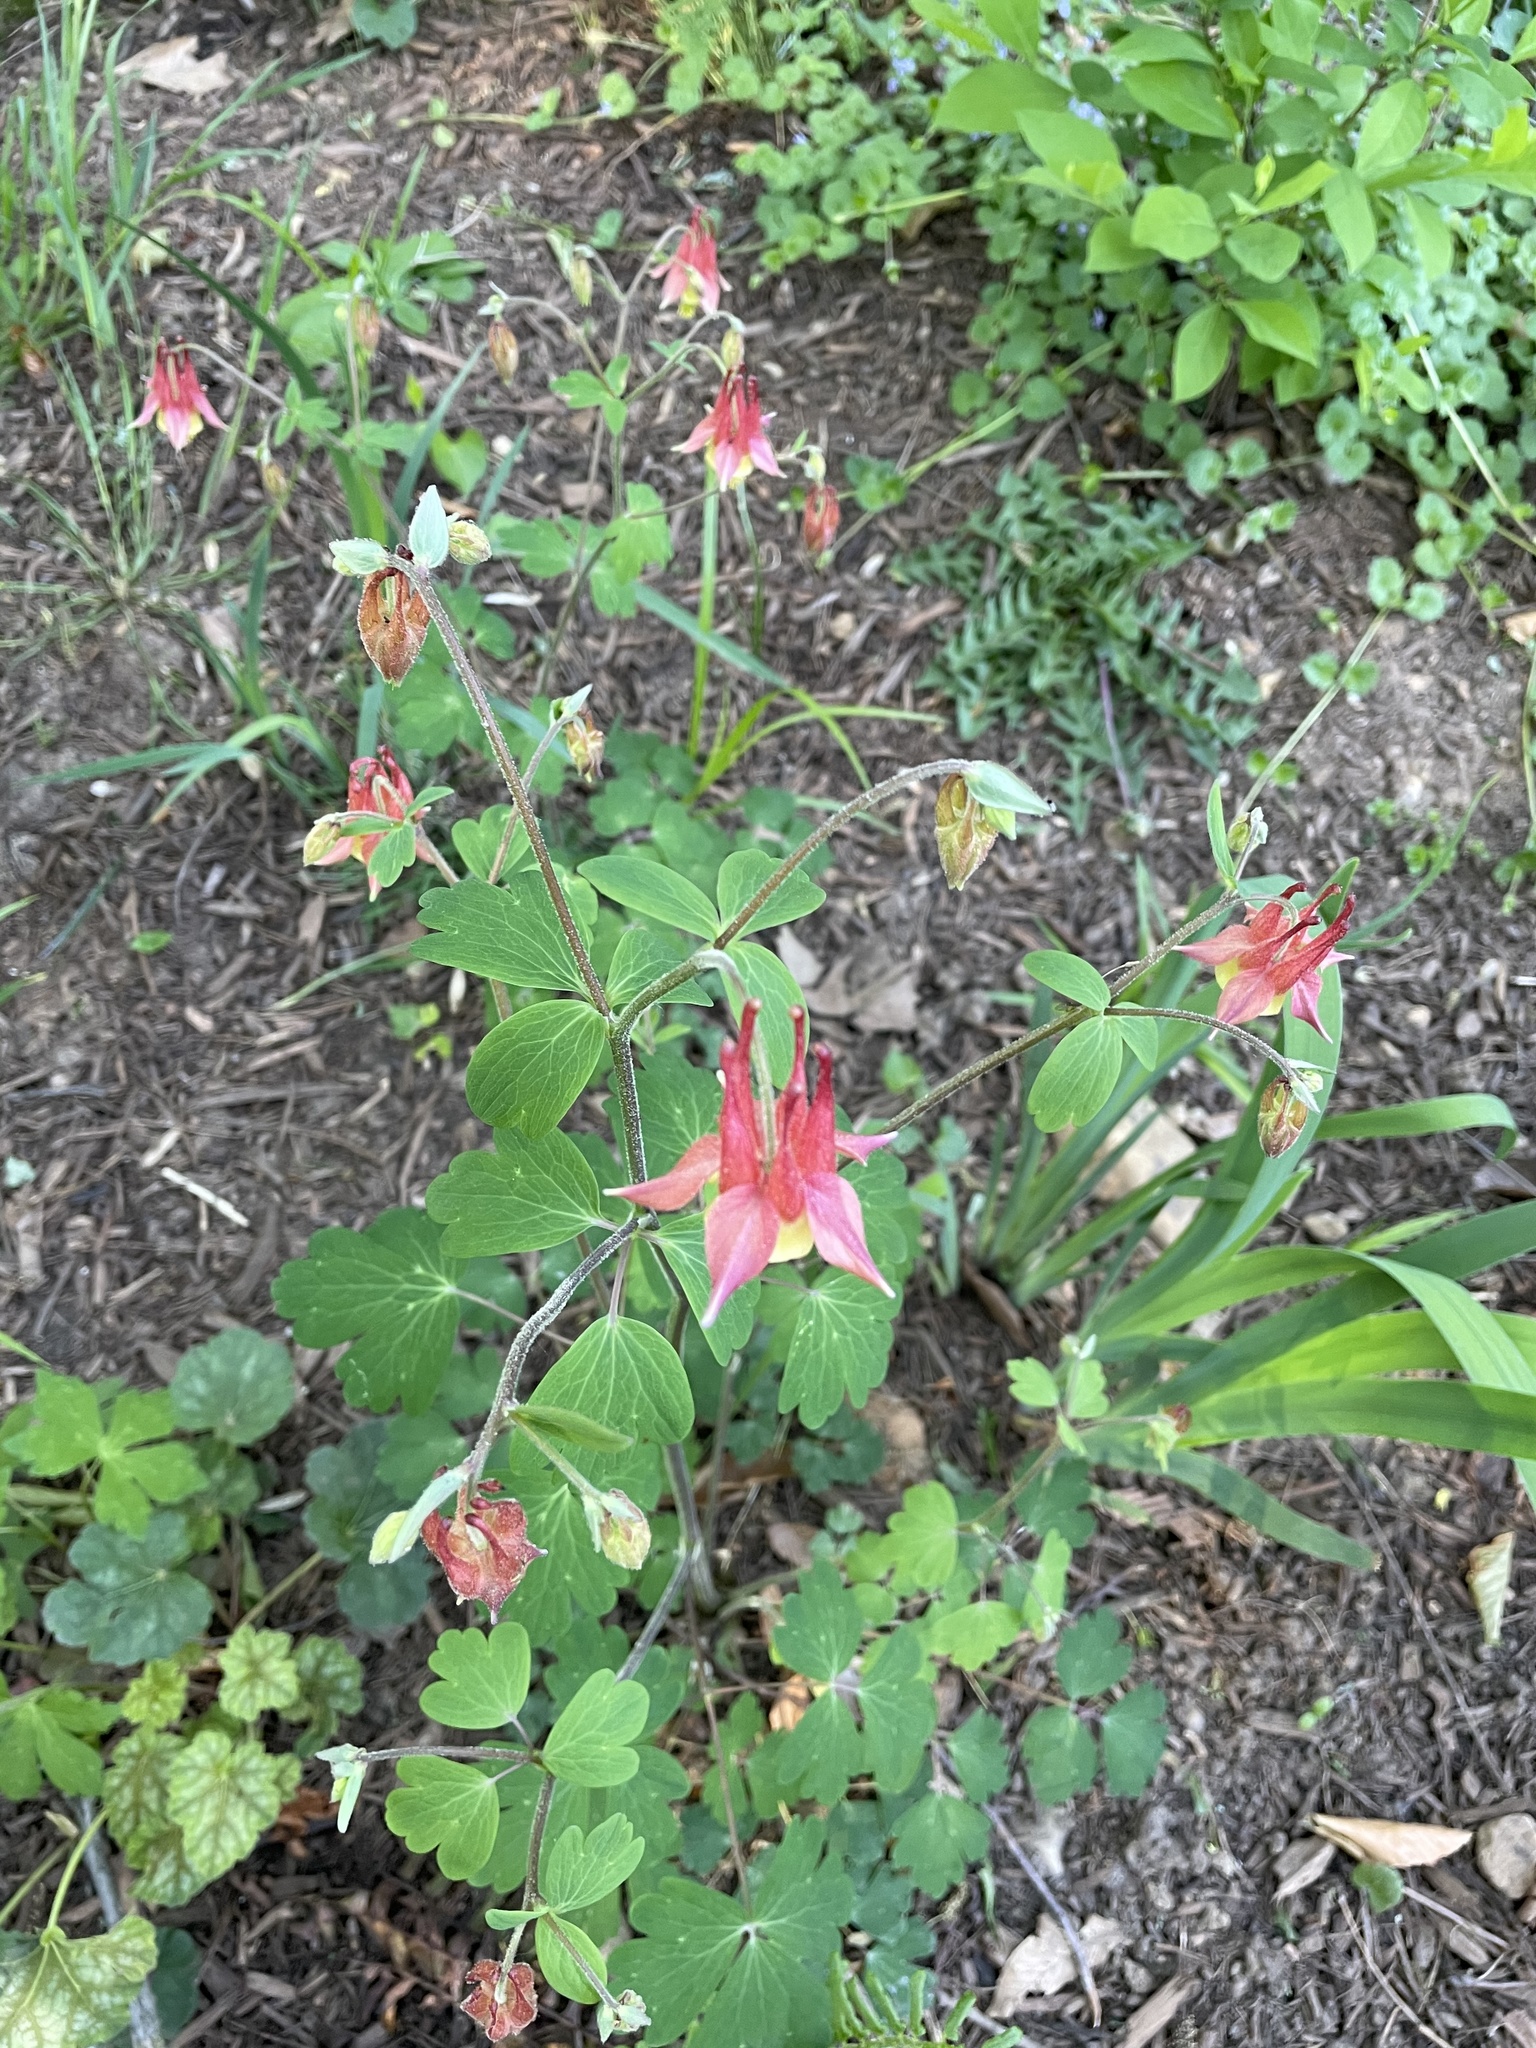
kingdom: Plantae
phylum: Tracheophyta
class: Magnoliopsida
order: Ranunculales
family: Ranunculaceae
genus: Aquilegia
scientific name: Aquilegia canadensis
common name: American columbine
